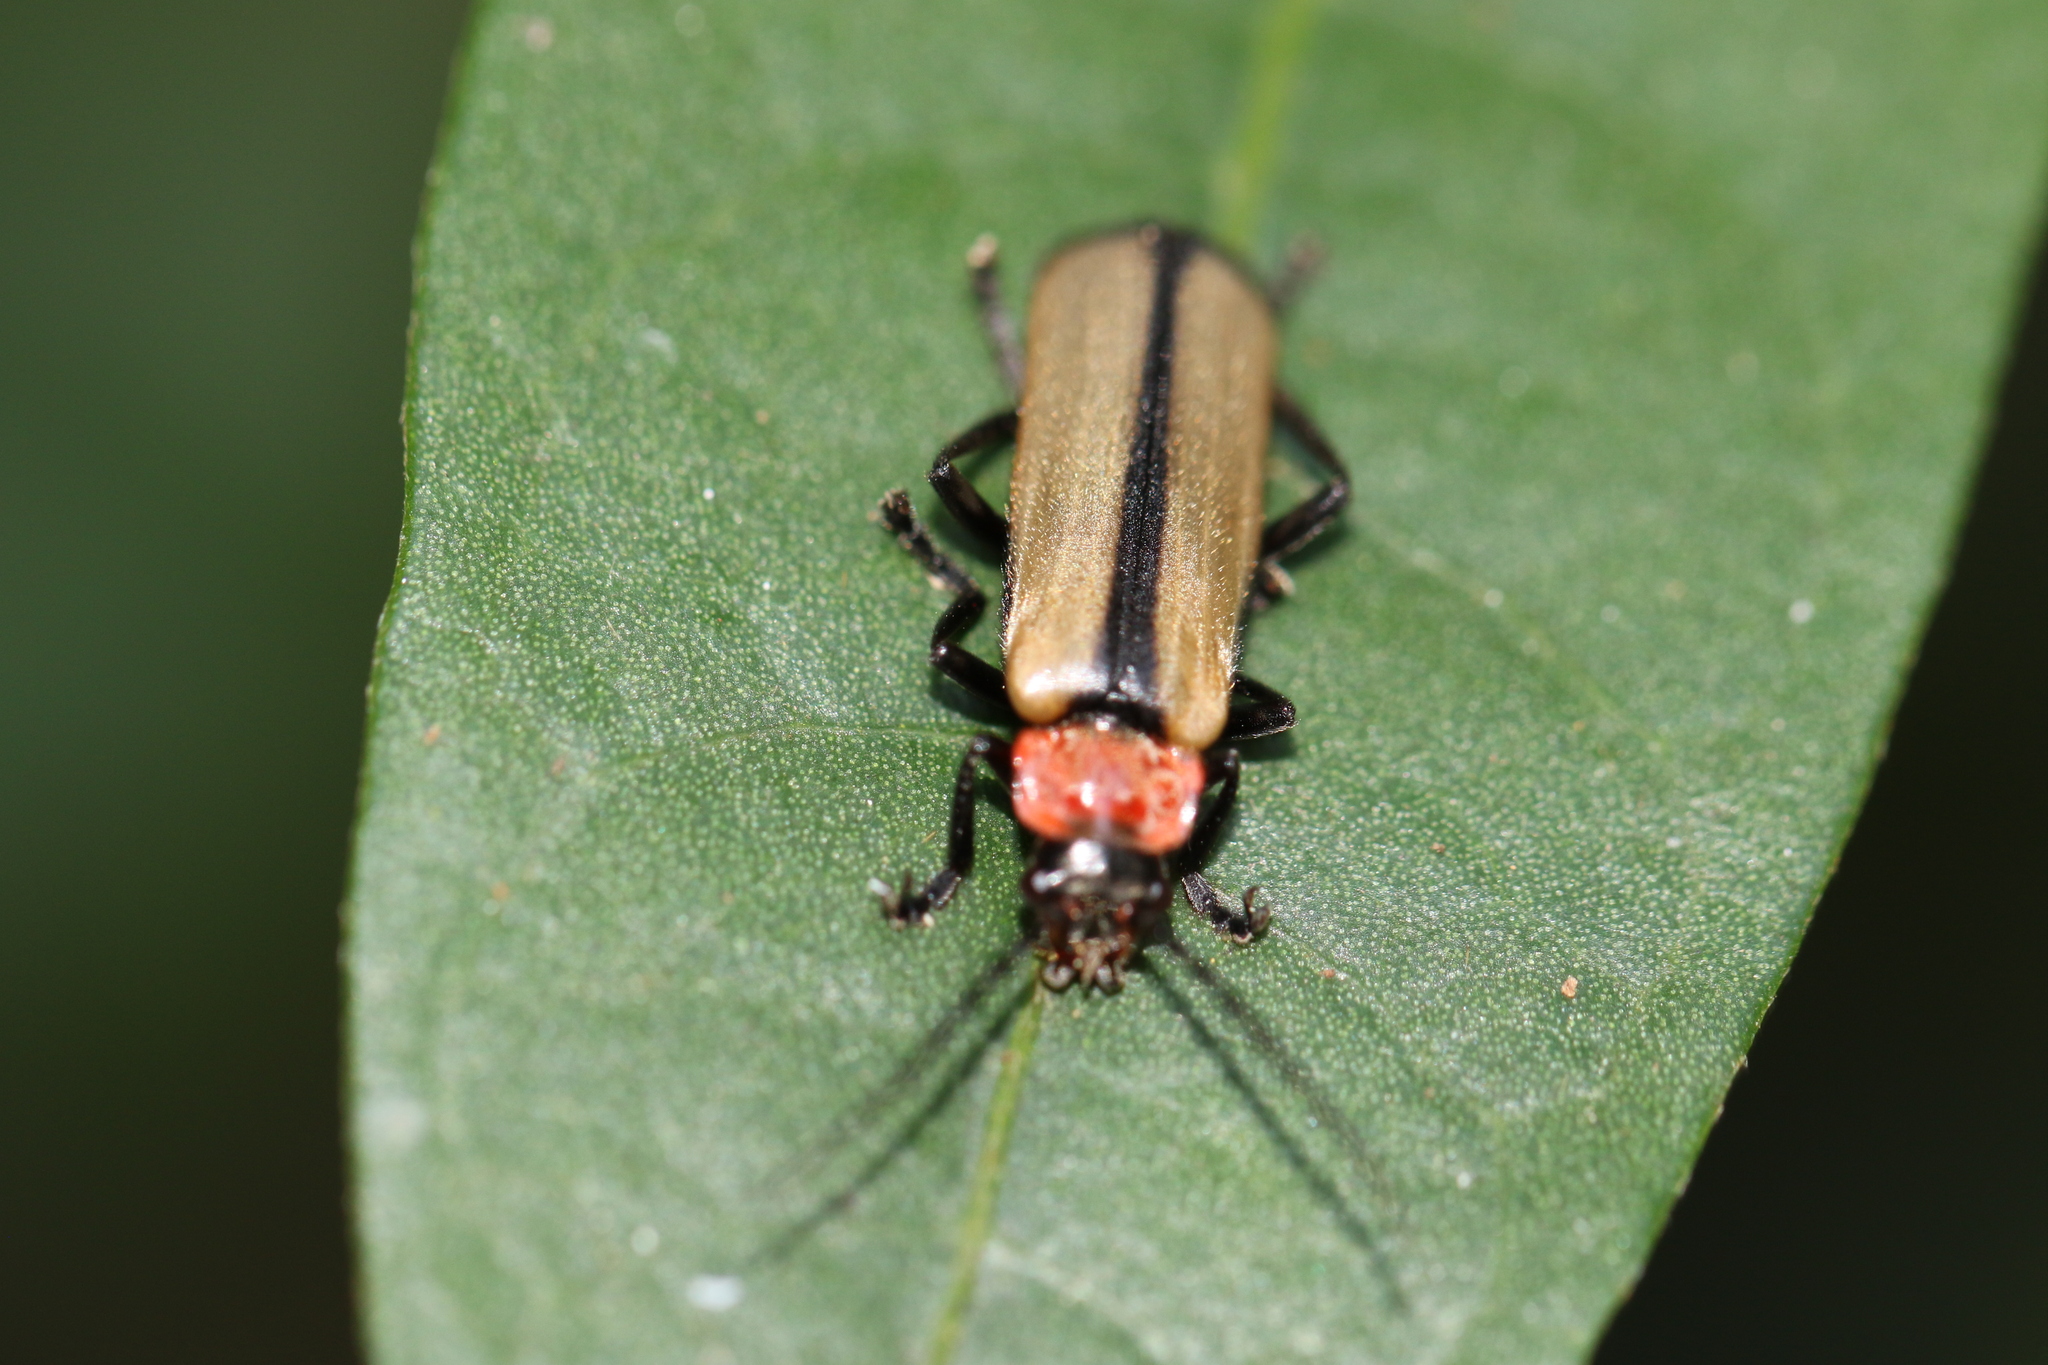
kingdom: Animalia
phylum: Arthropoda
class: Insecta
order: Coleoptera
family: Cantharidae
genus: Discodon
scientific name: Discodon
